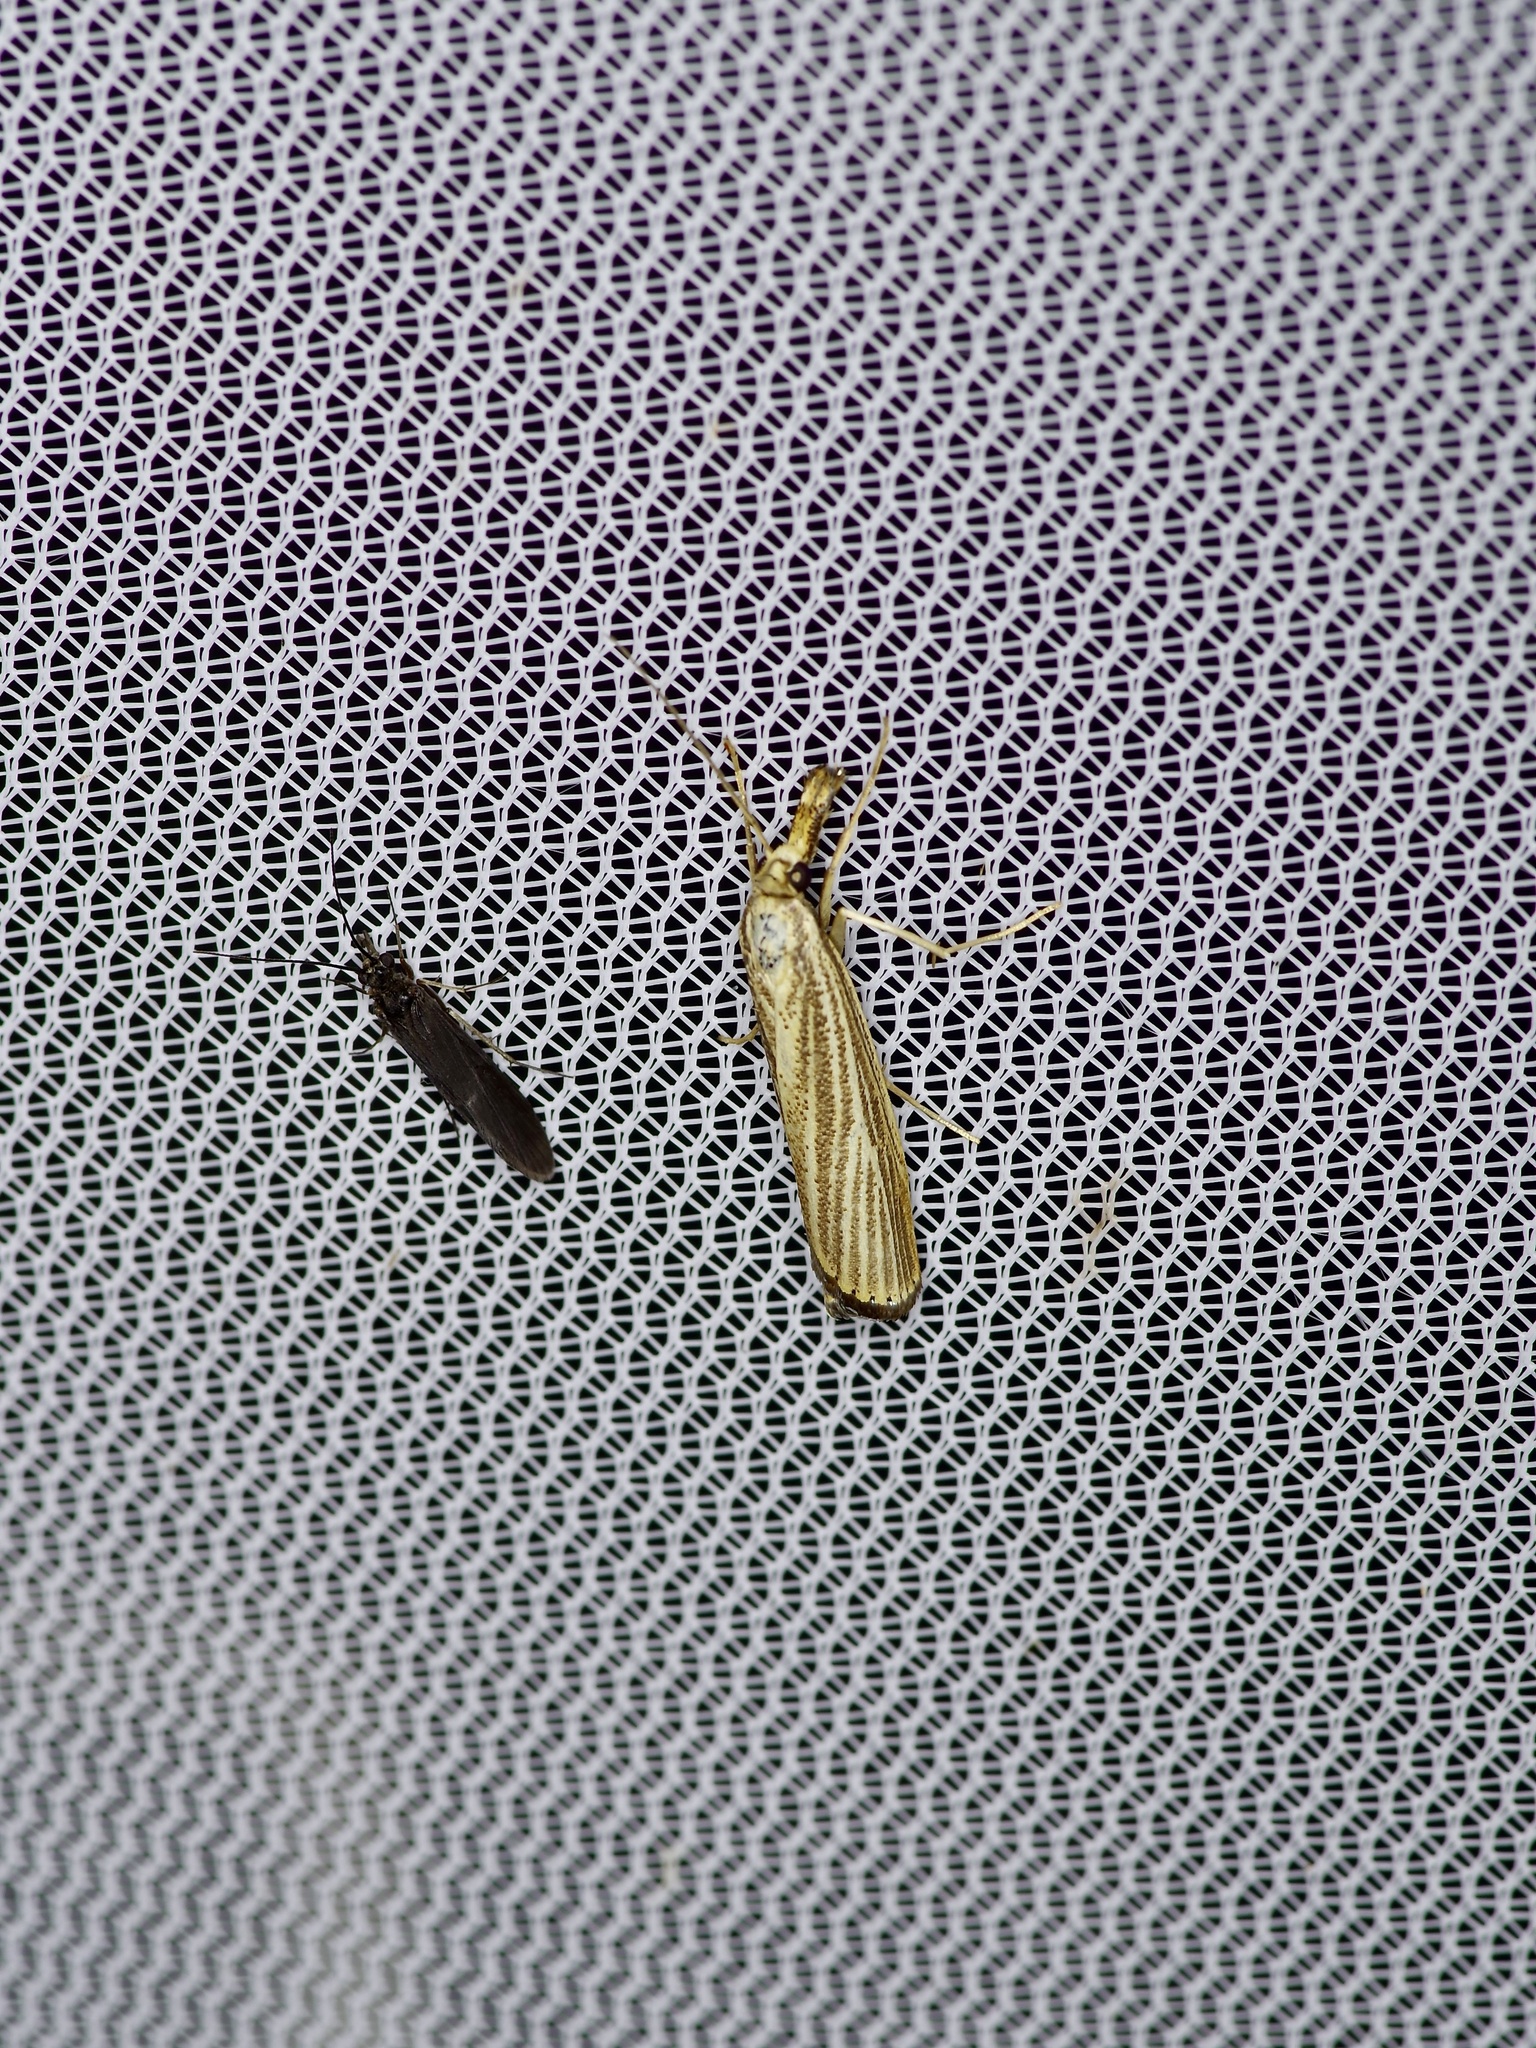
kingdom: Animalia
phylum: Arthropoda
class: Insecta
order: Lepidoptera
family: Crambidae
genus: Agriphila
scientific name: Agriphila vulgivagellus
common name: Vagabond crambus moth
